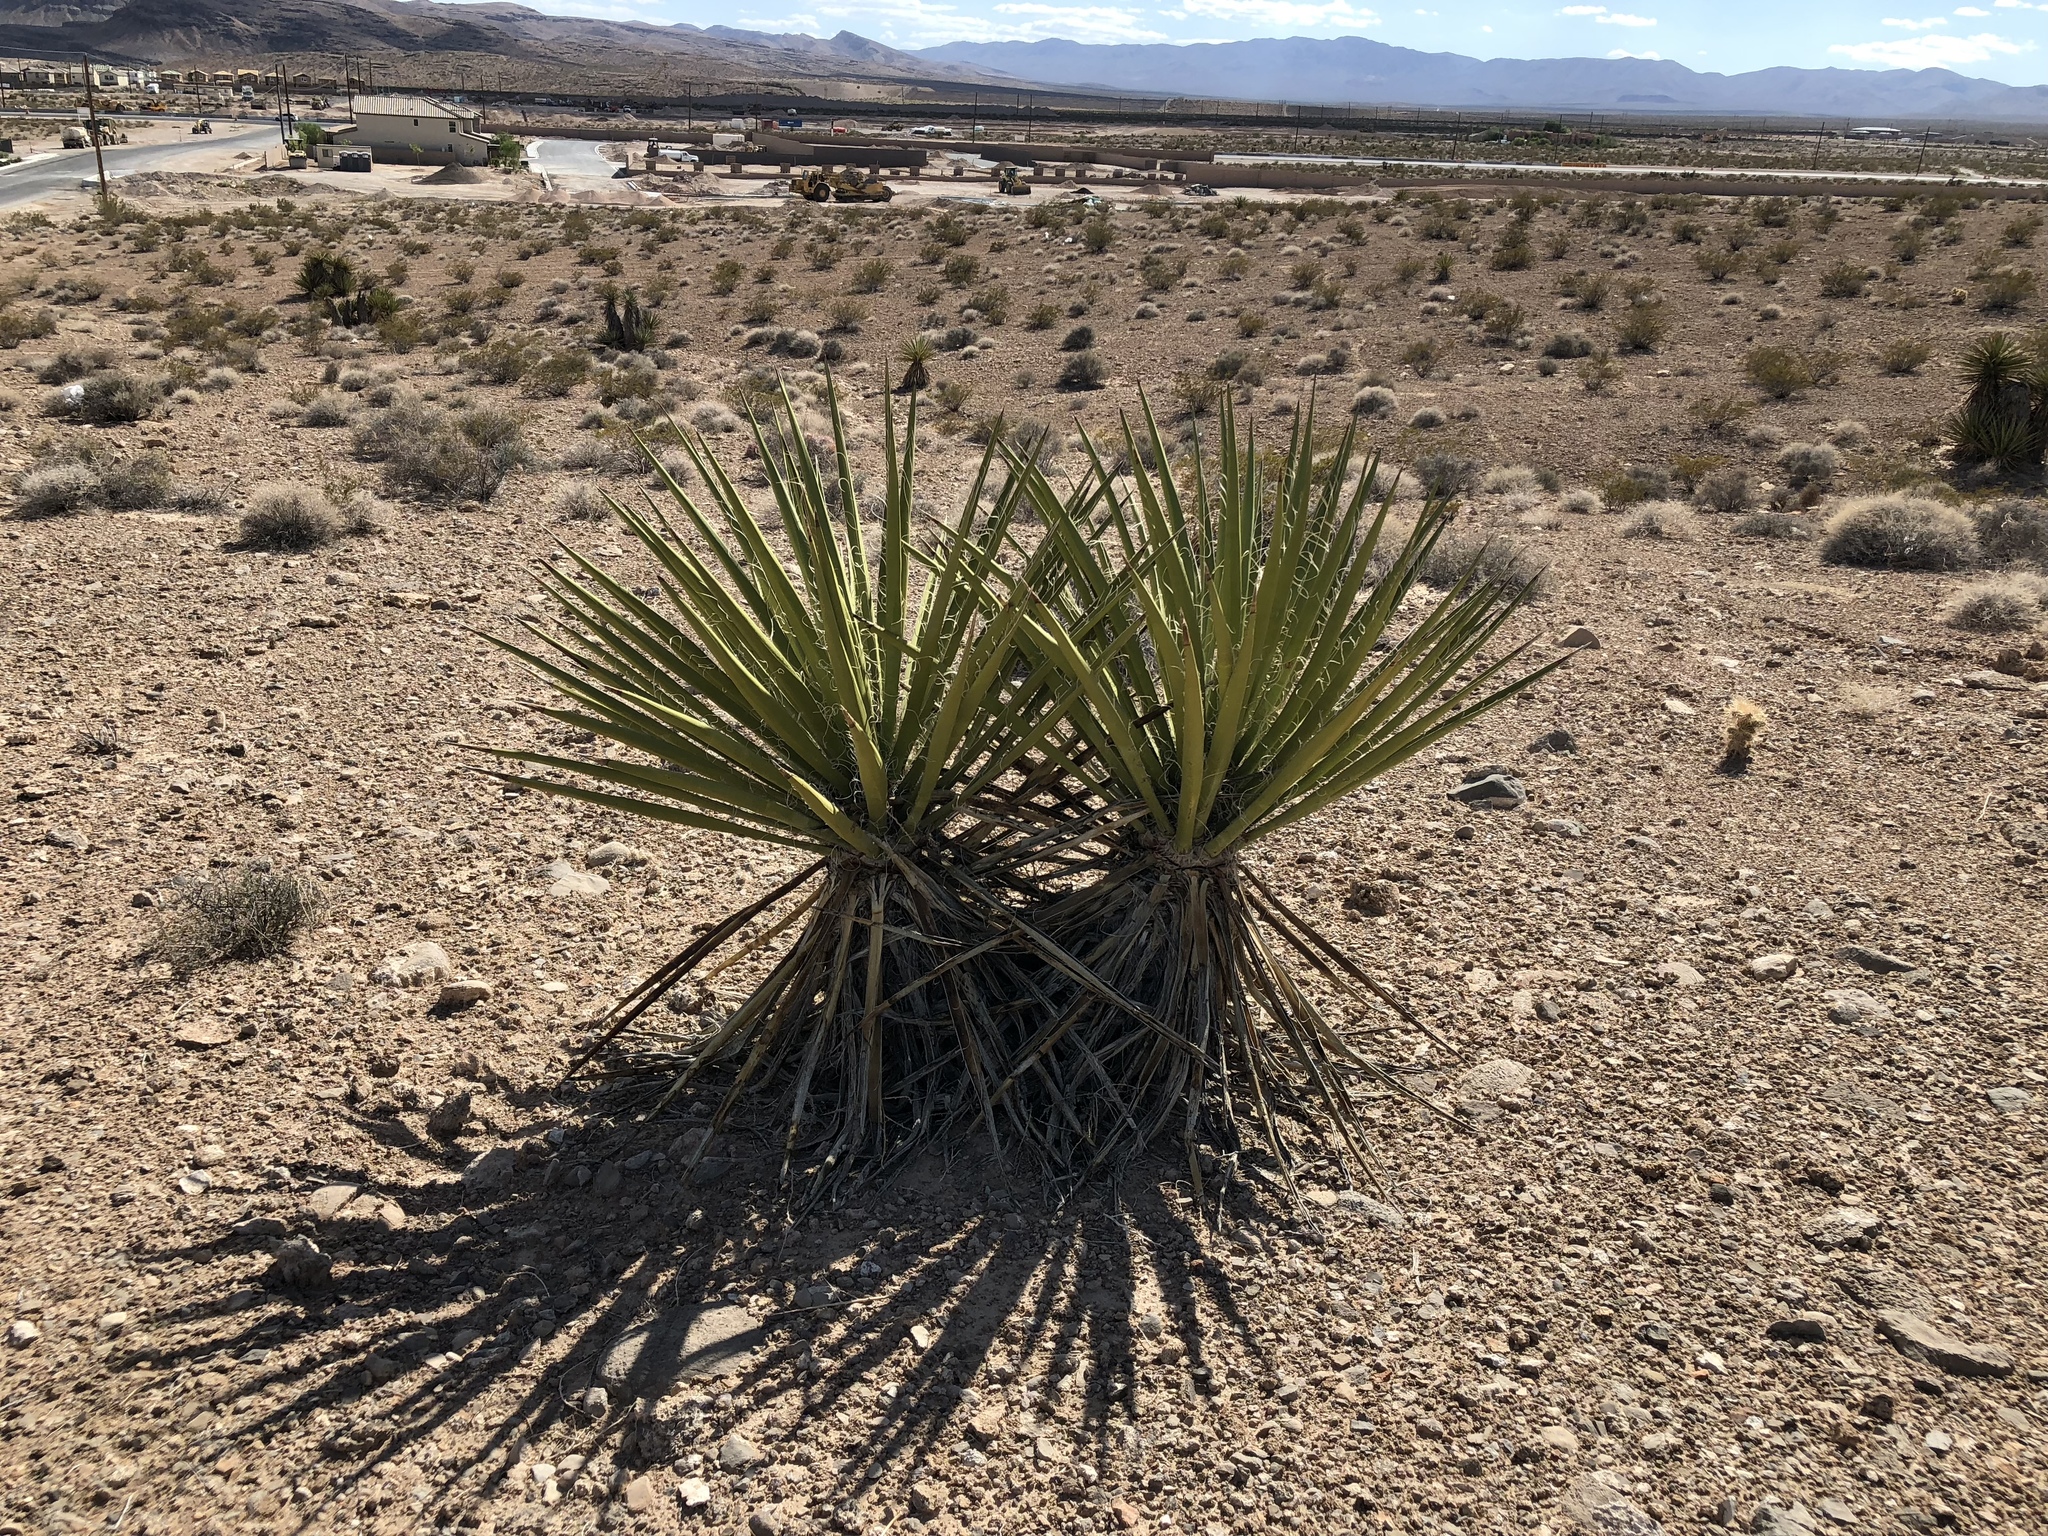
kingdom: Plantae
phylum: Tracheophyta
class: Liliopsida
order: Asparagales
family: Asparagaceae
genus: Yucca
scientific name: Yucca schidigera
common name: Mojave yucca
